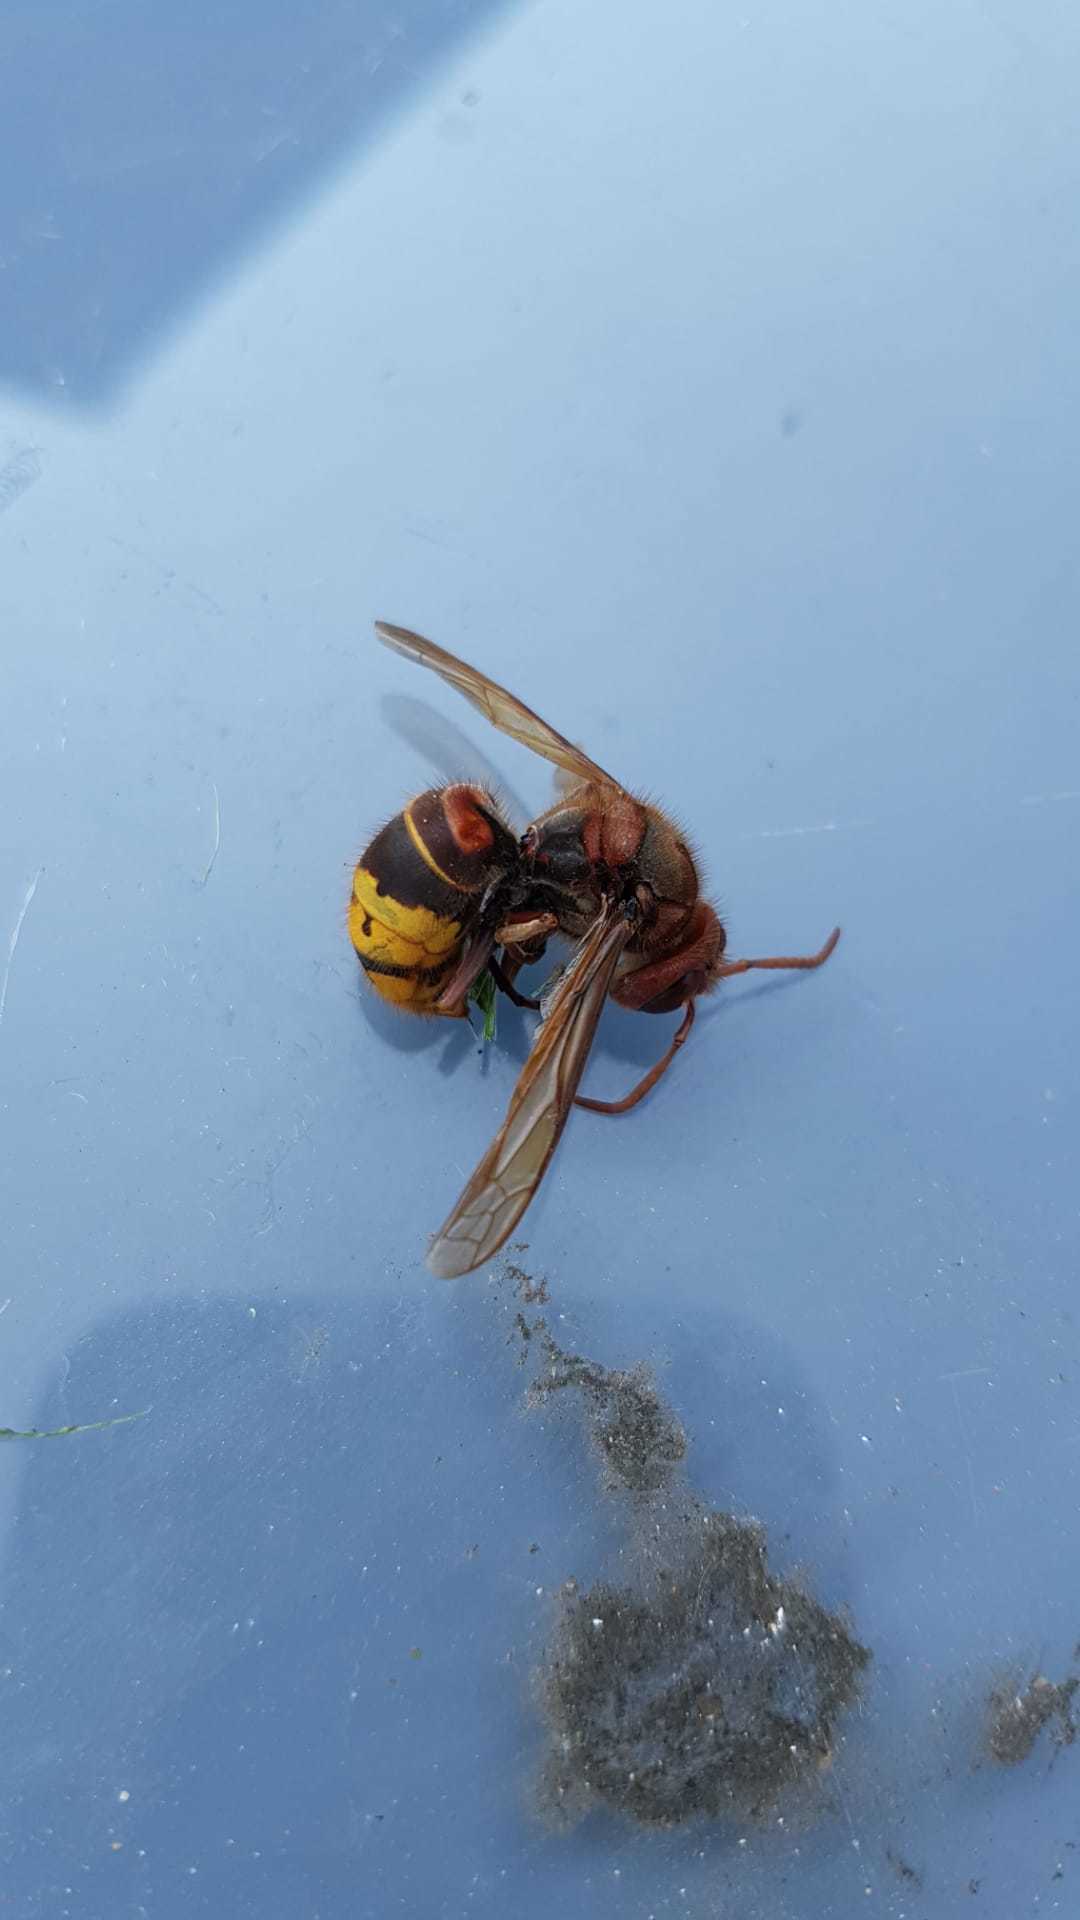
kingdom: Animalia
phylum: Arthropoda
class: Insecta
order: Hymenoptera
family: Vespidae
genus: Vespa
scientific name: Vespa crabro
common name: Hornet
